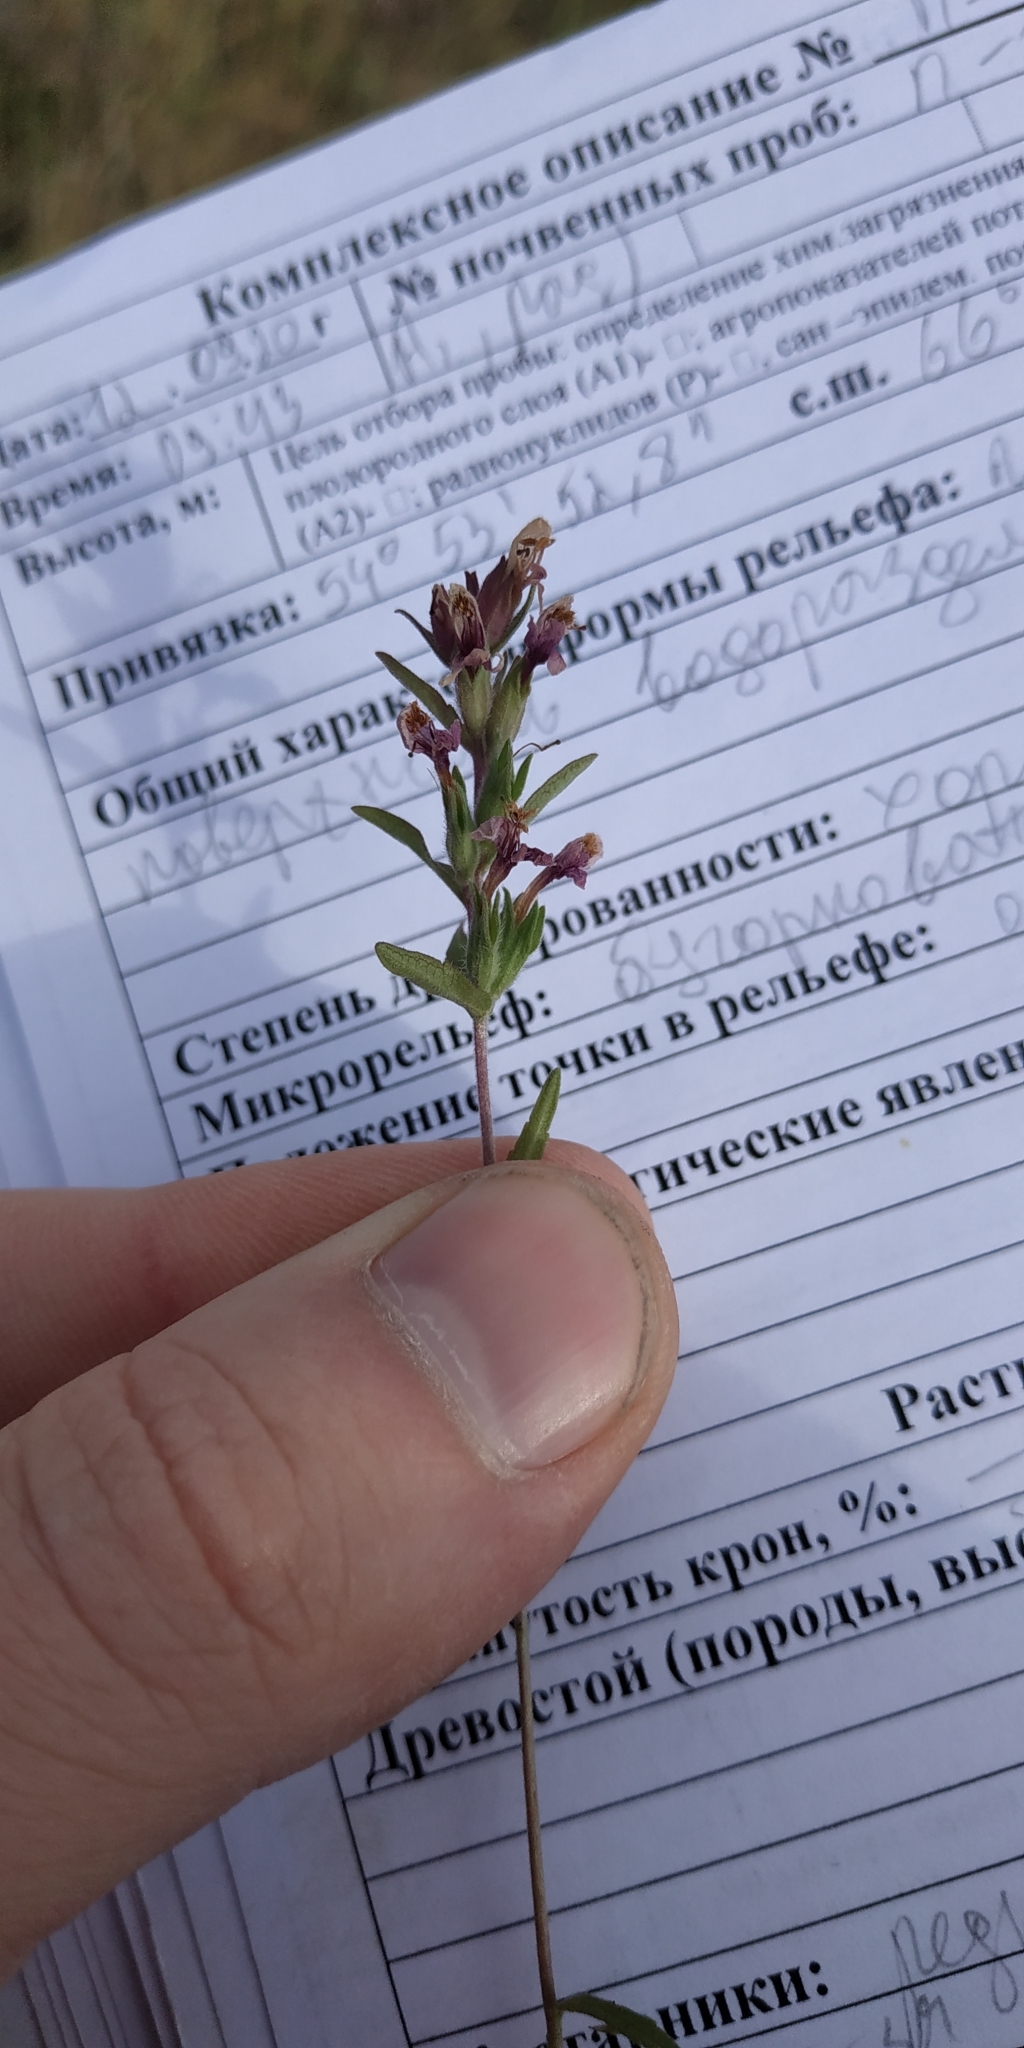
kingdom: Plantae
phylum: Tracheophyta
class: Magnoliopsida
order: Lamiales
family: Orobanchaceae
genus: Odontites
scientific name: Odontites vulgaris
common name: Broomrape
